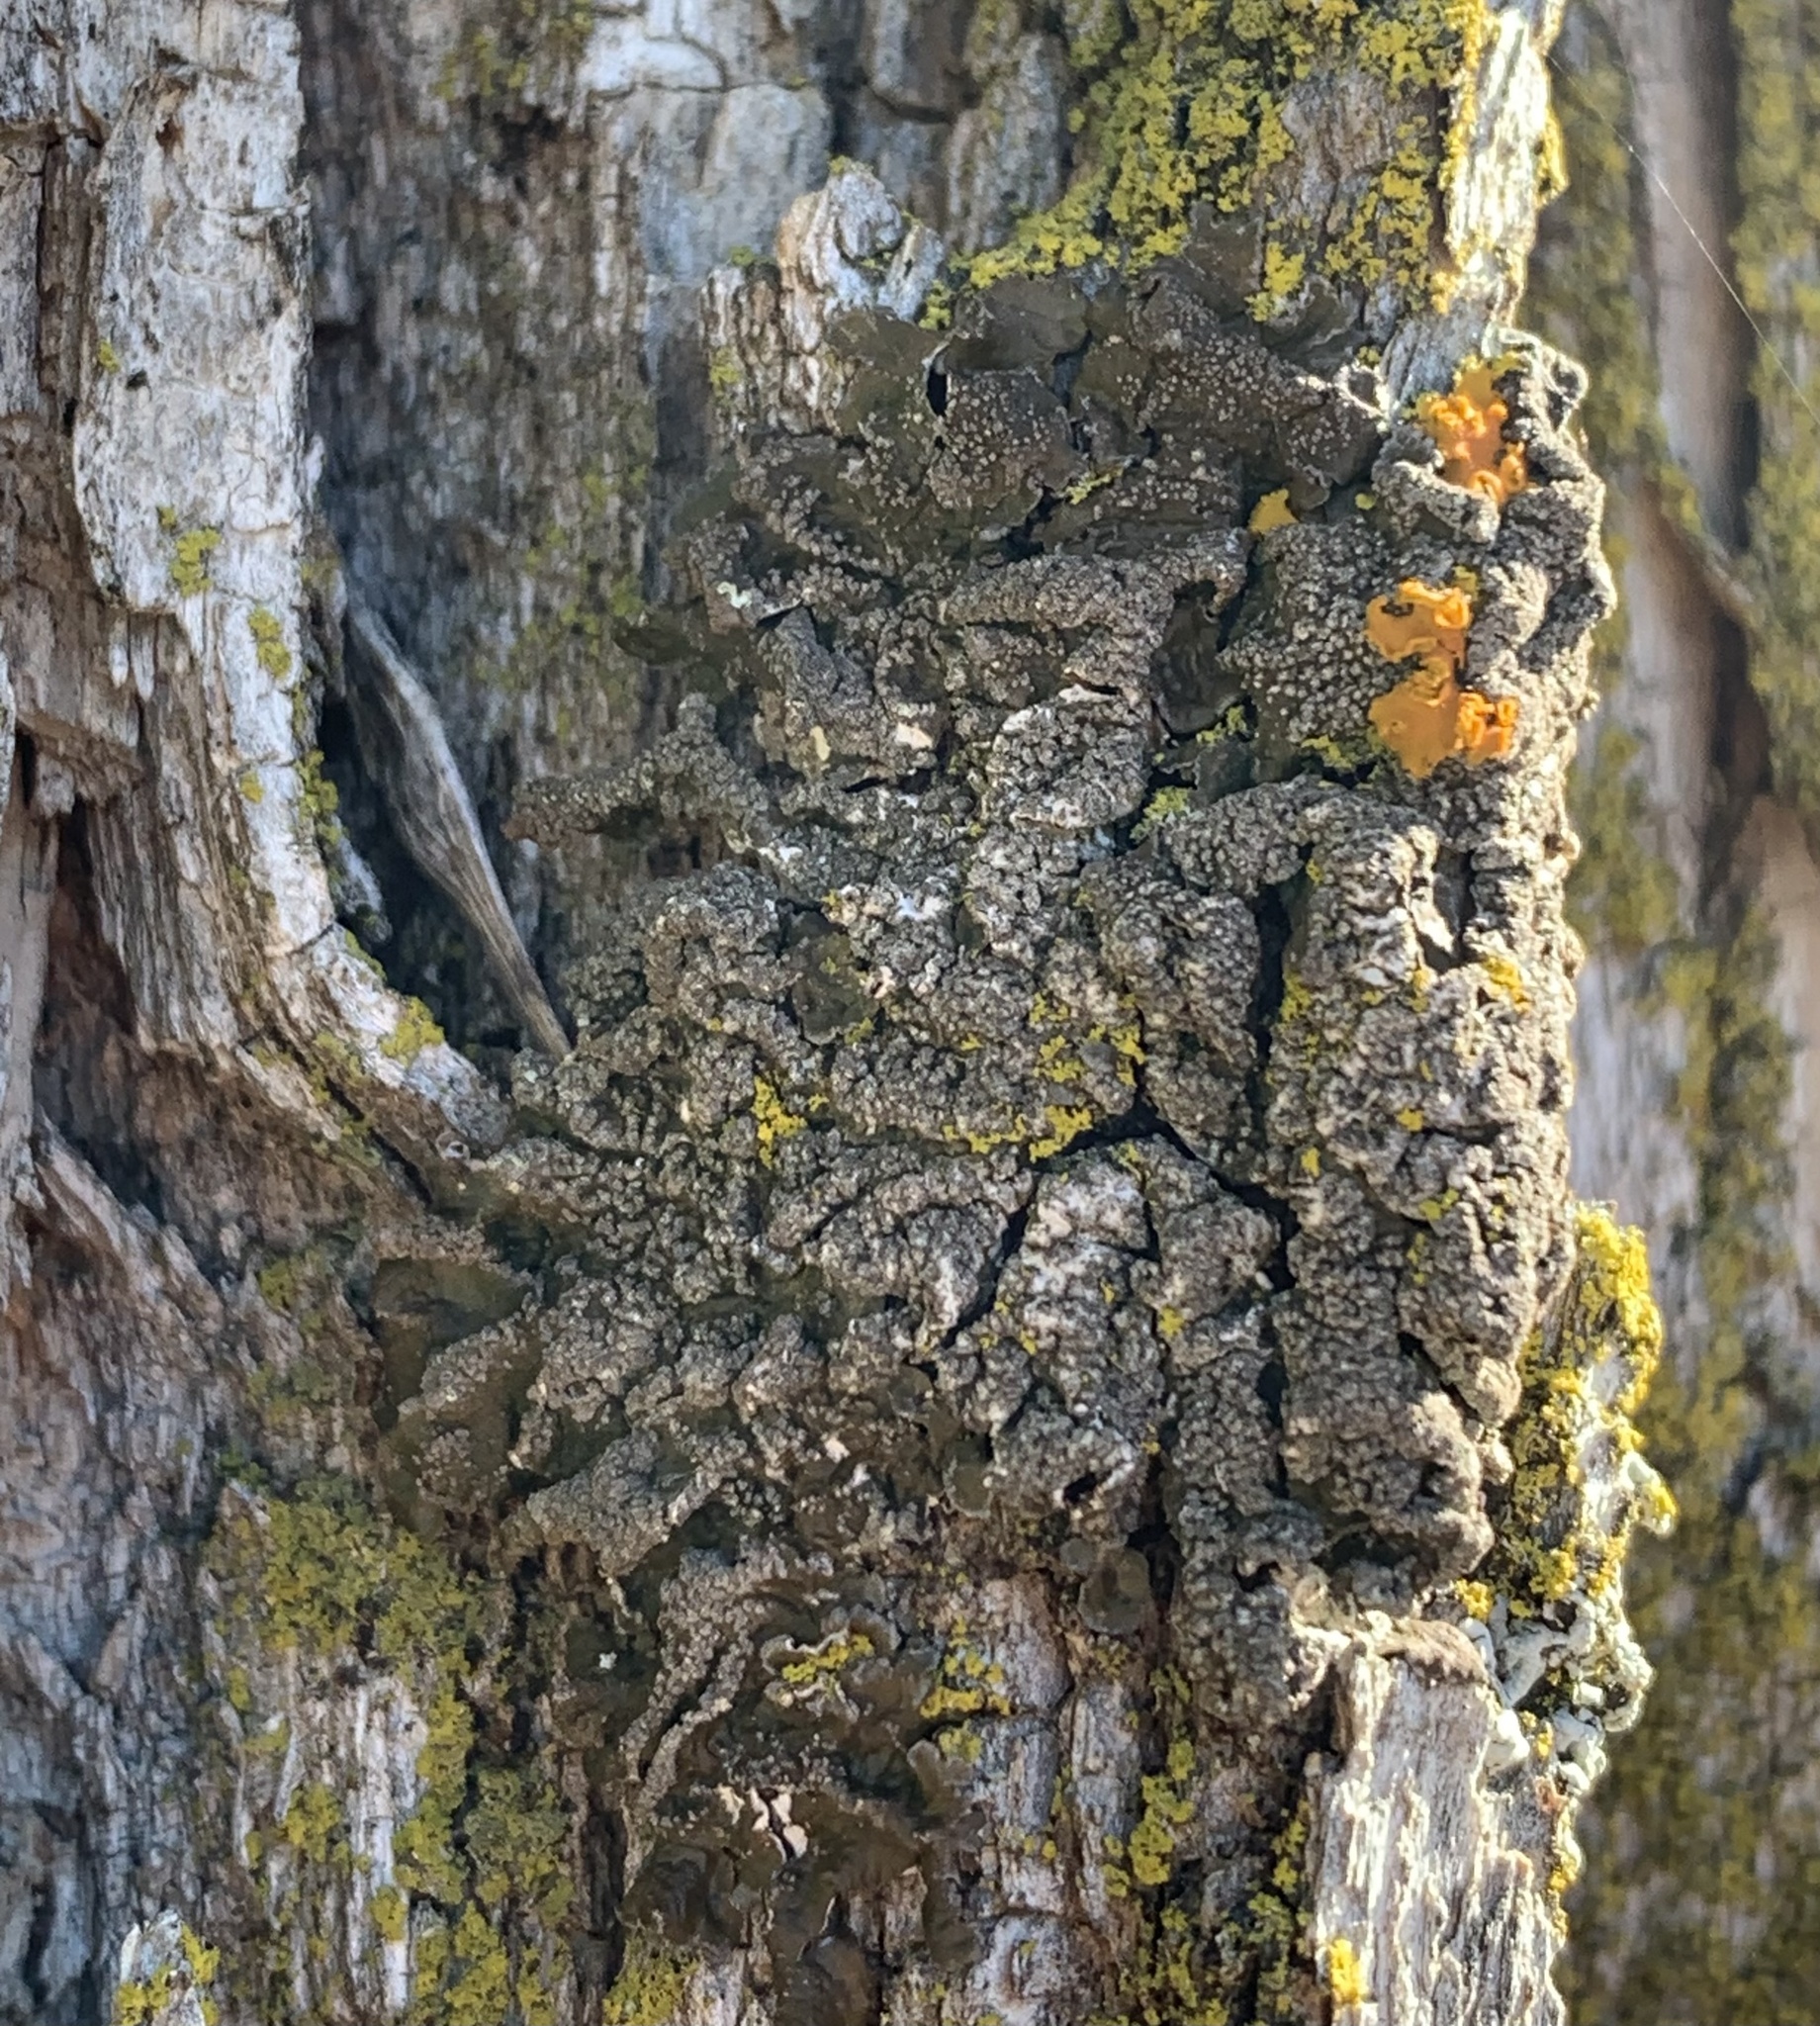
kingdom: Fungi
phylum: Ascomycota
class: Lecanoromycetes
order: Lecanorales
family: Parmeliaceae
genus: Melanelixia
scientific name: Melanelixia subargentifera
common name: Whiskered camouflage lichen
